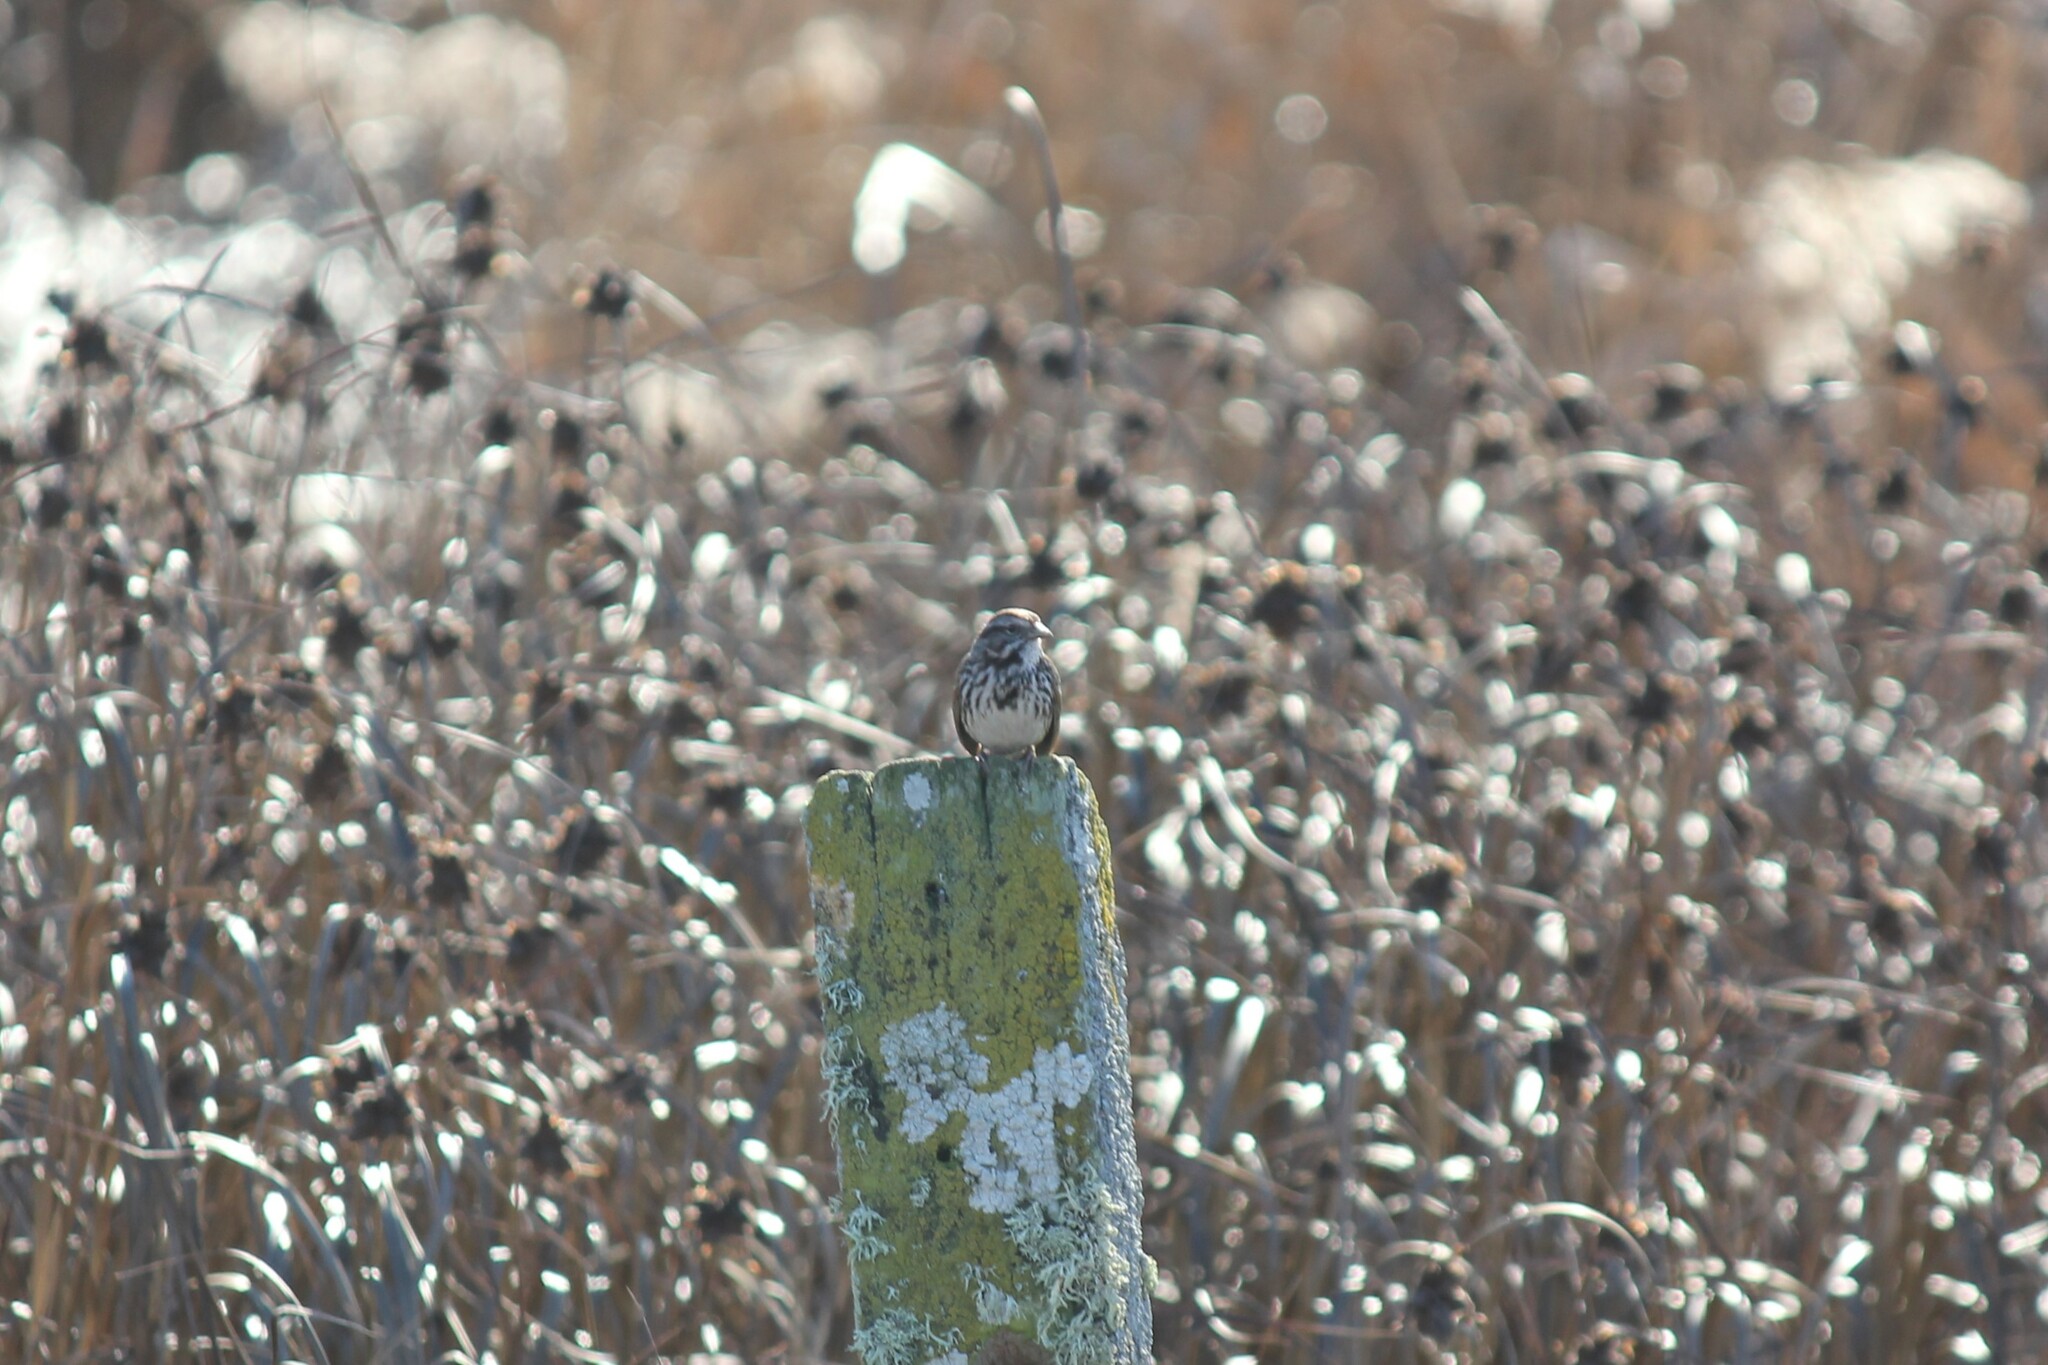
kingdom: Animalia
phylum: Chordata
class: Aves
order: Passeriformes
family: Passerellidae
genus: Melospiza
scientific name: Melospiza melodia
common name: Song sparrow
